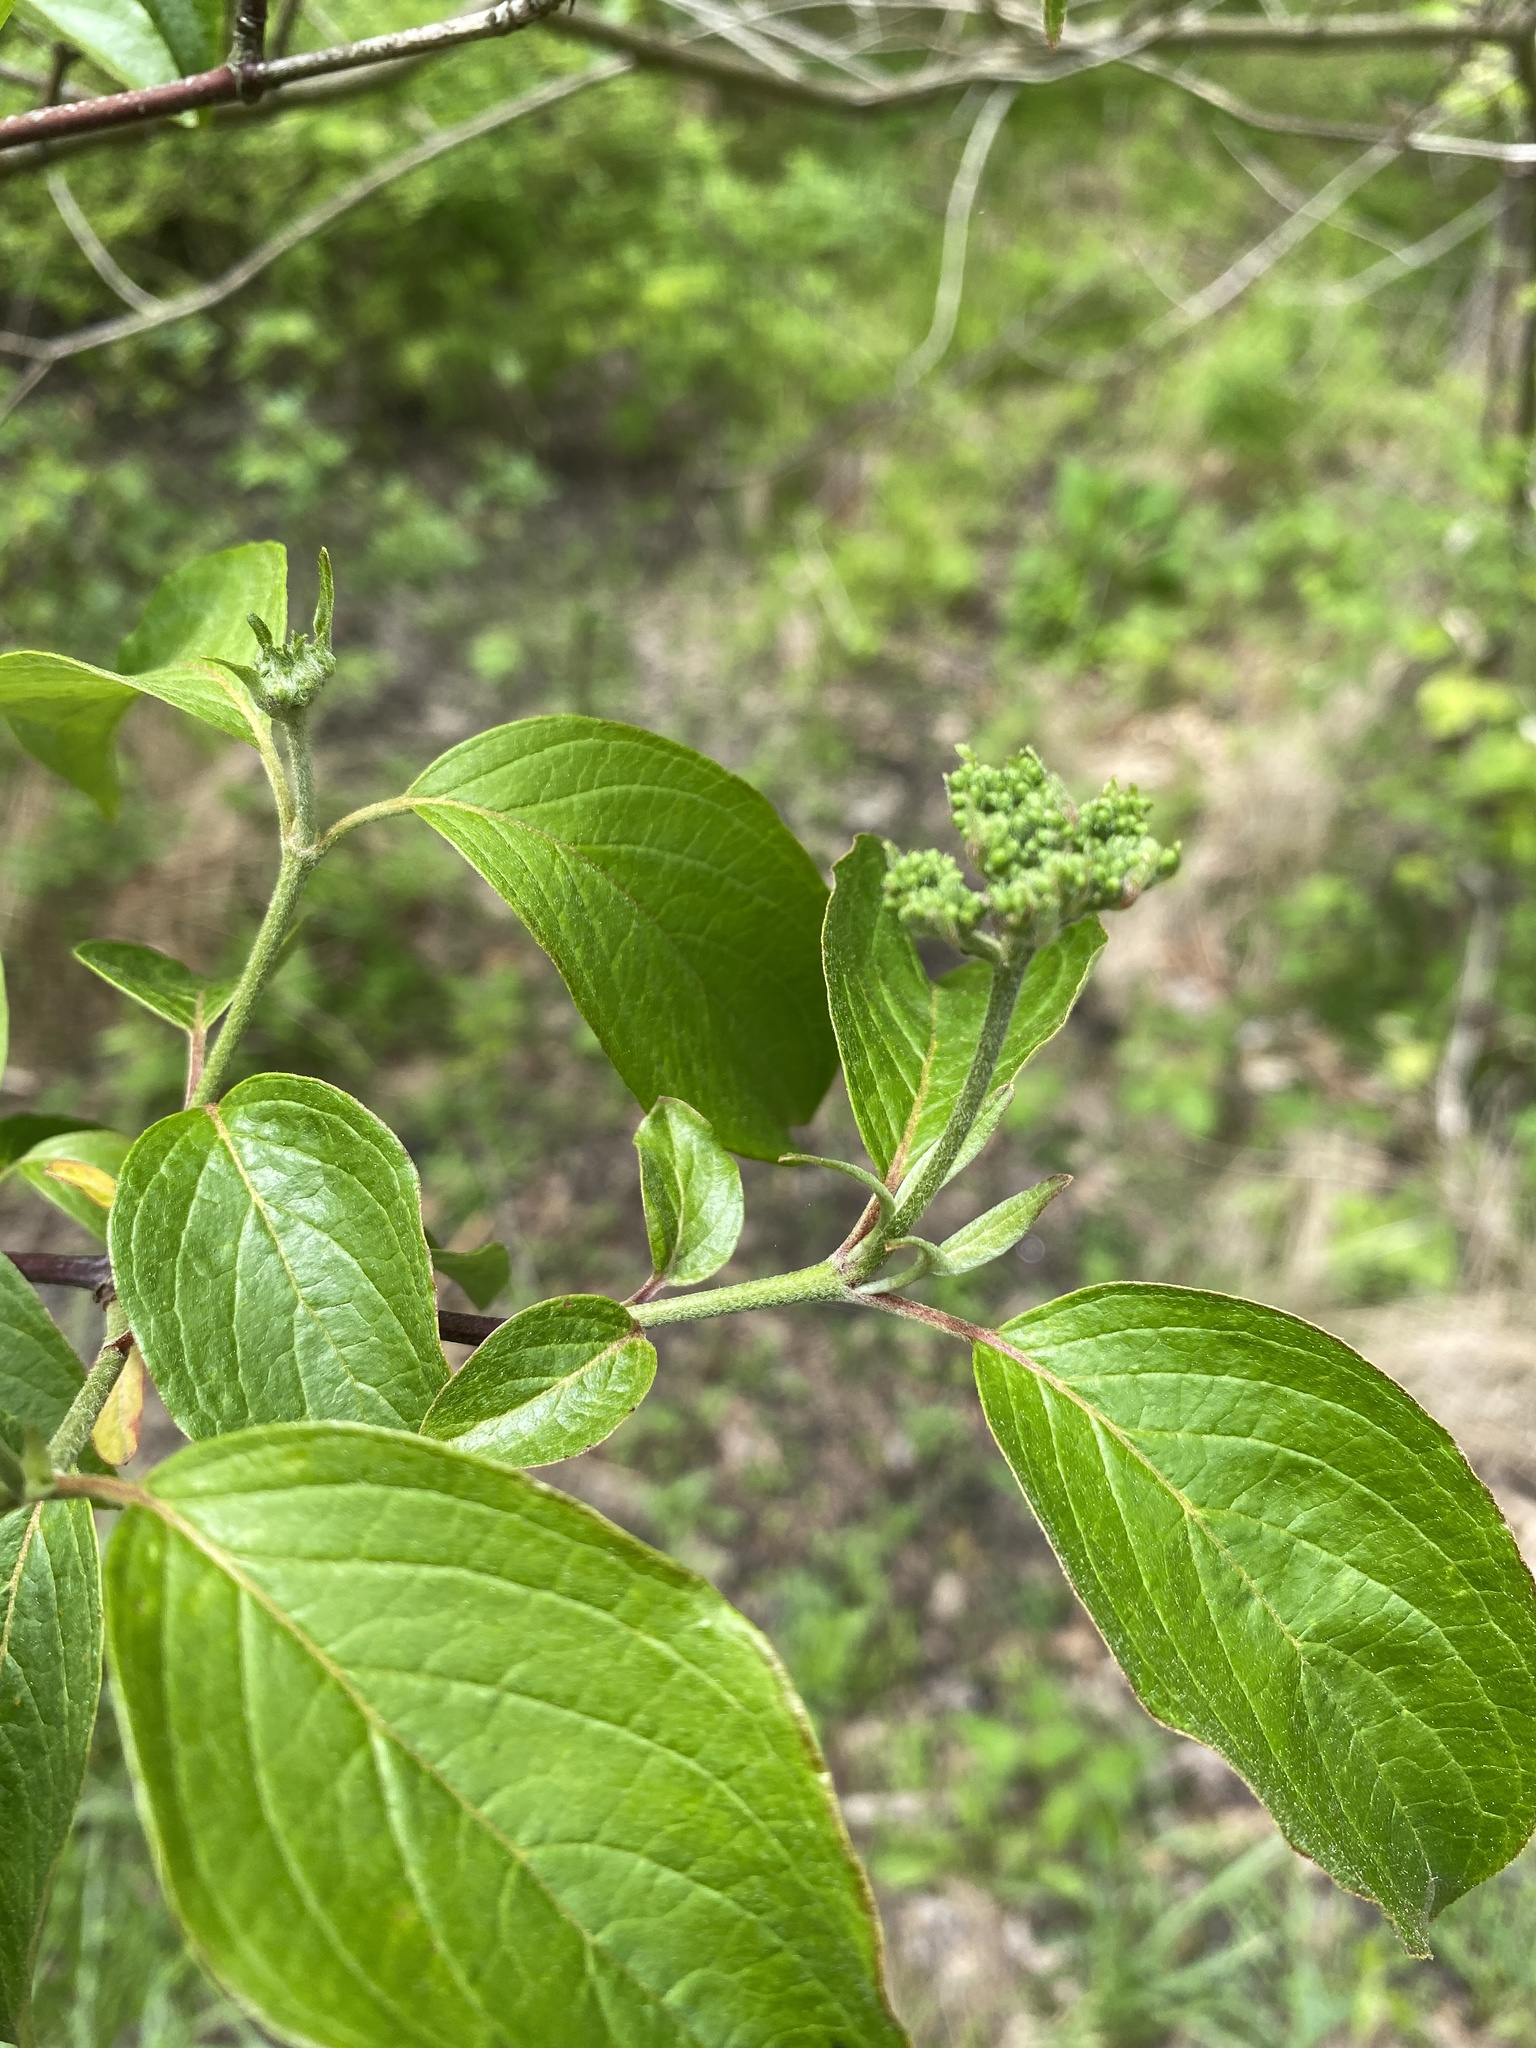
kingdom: Plantae
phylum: Tracheophyta
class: Magnoliopsida
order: Cornales
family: Cornaceae
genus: Cornus
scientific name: Cornus amomum
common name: Silky dogwood
